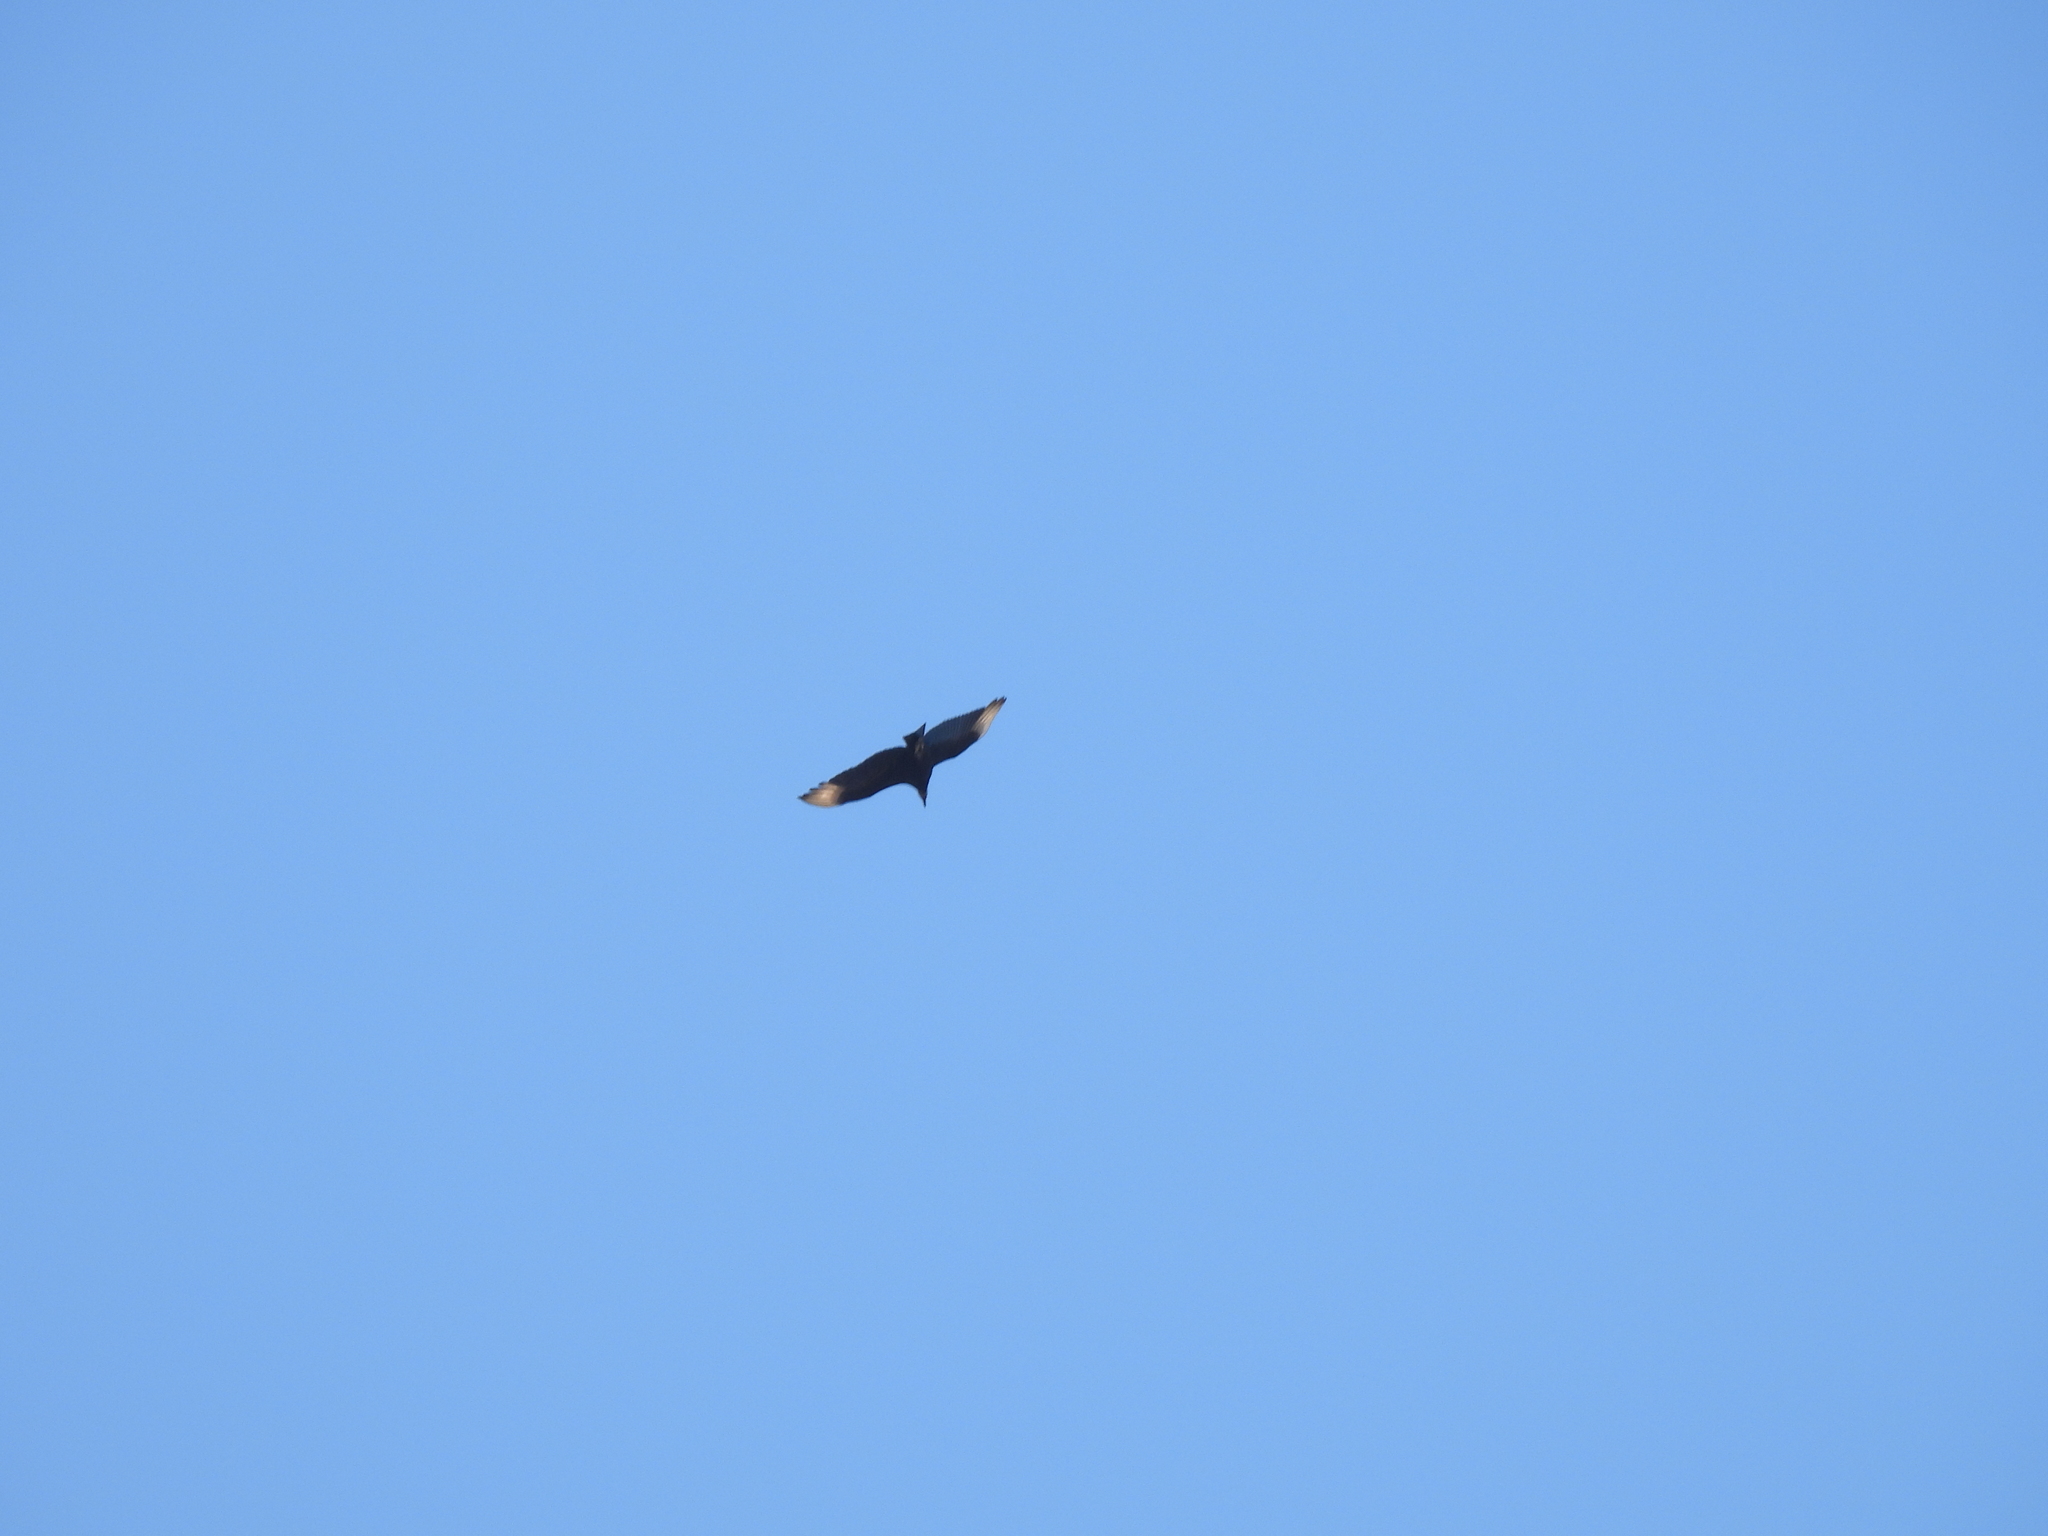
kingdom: Animalia
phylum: Chordata
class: Aves
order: Accipitriformes
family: Cathartidae
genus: Coragyps
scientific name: Coragyps atratus
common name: Black vulture
